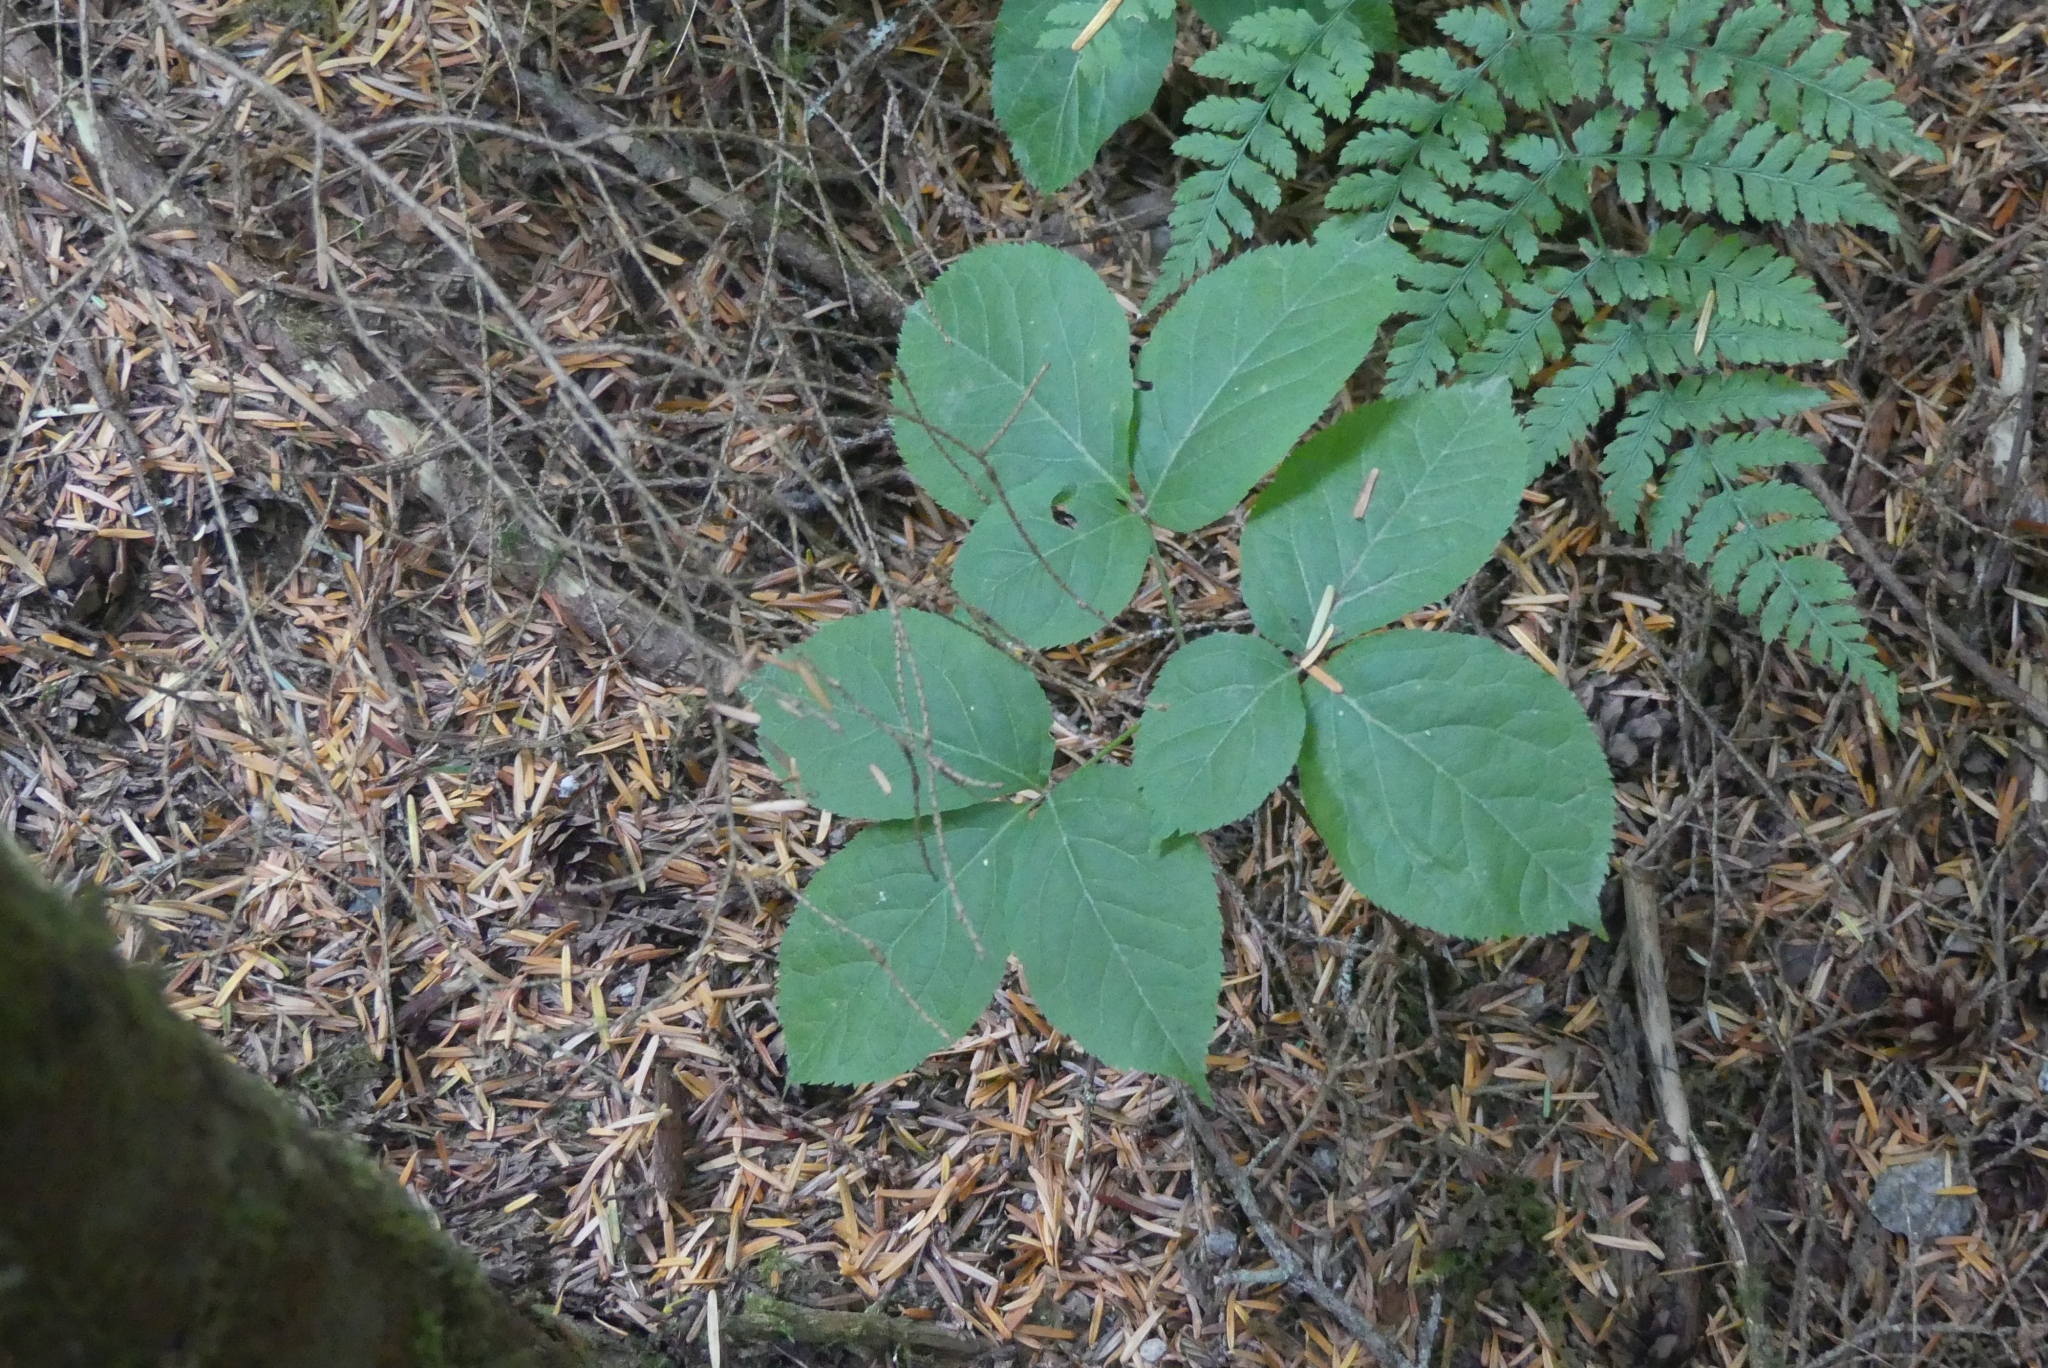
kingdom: Plantae
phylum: Tracheophyta
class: Magnoliopsida
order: Apiales
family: Araliaceae
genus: Aralia
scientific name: Aralia nudicaulis
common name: Wild sarsaparilla
